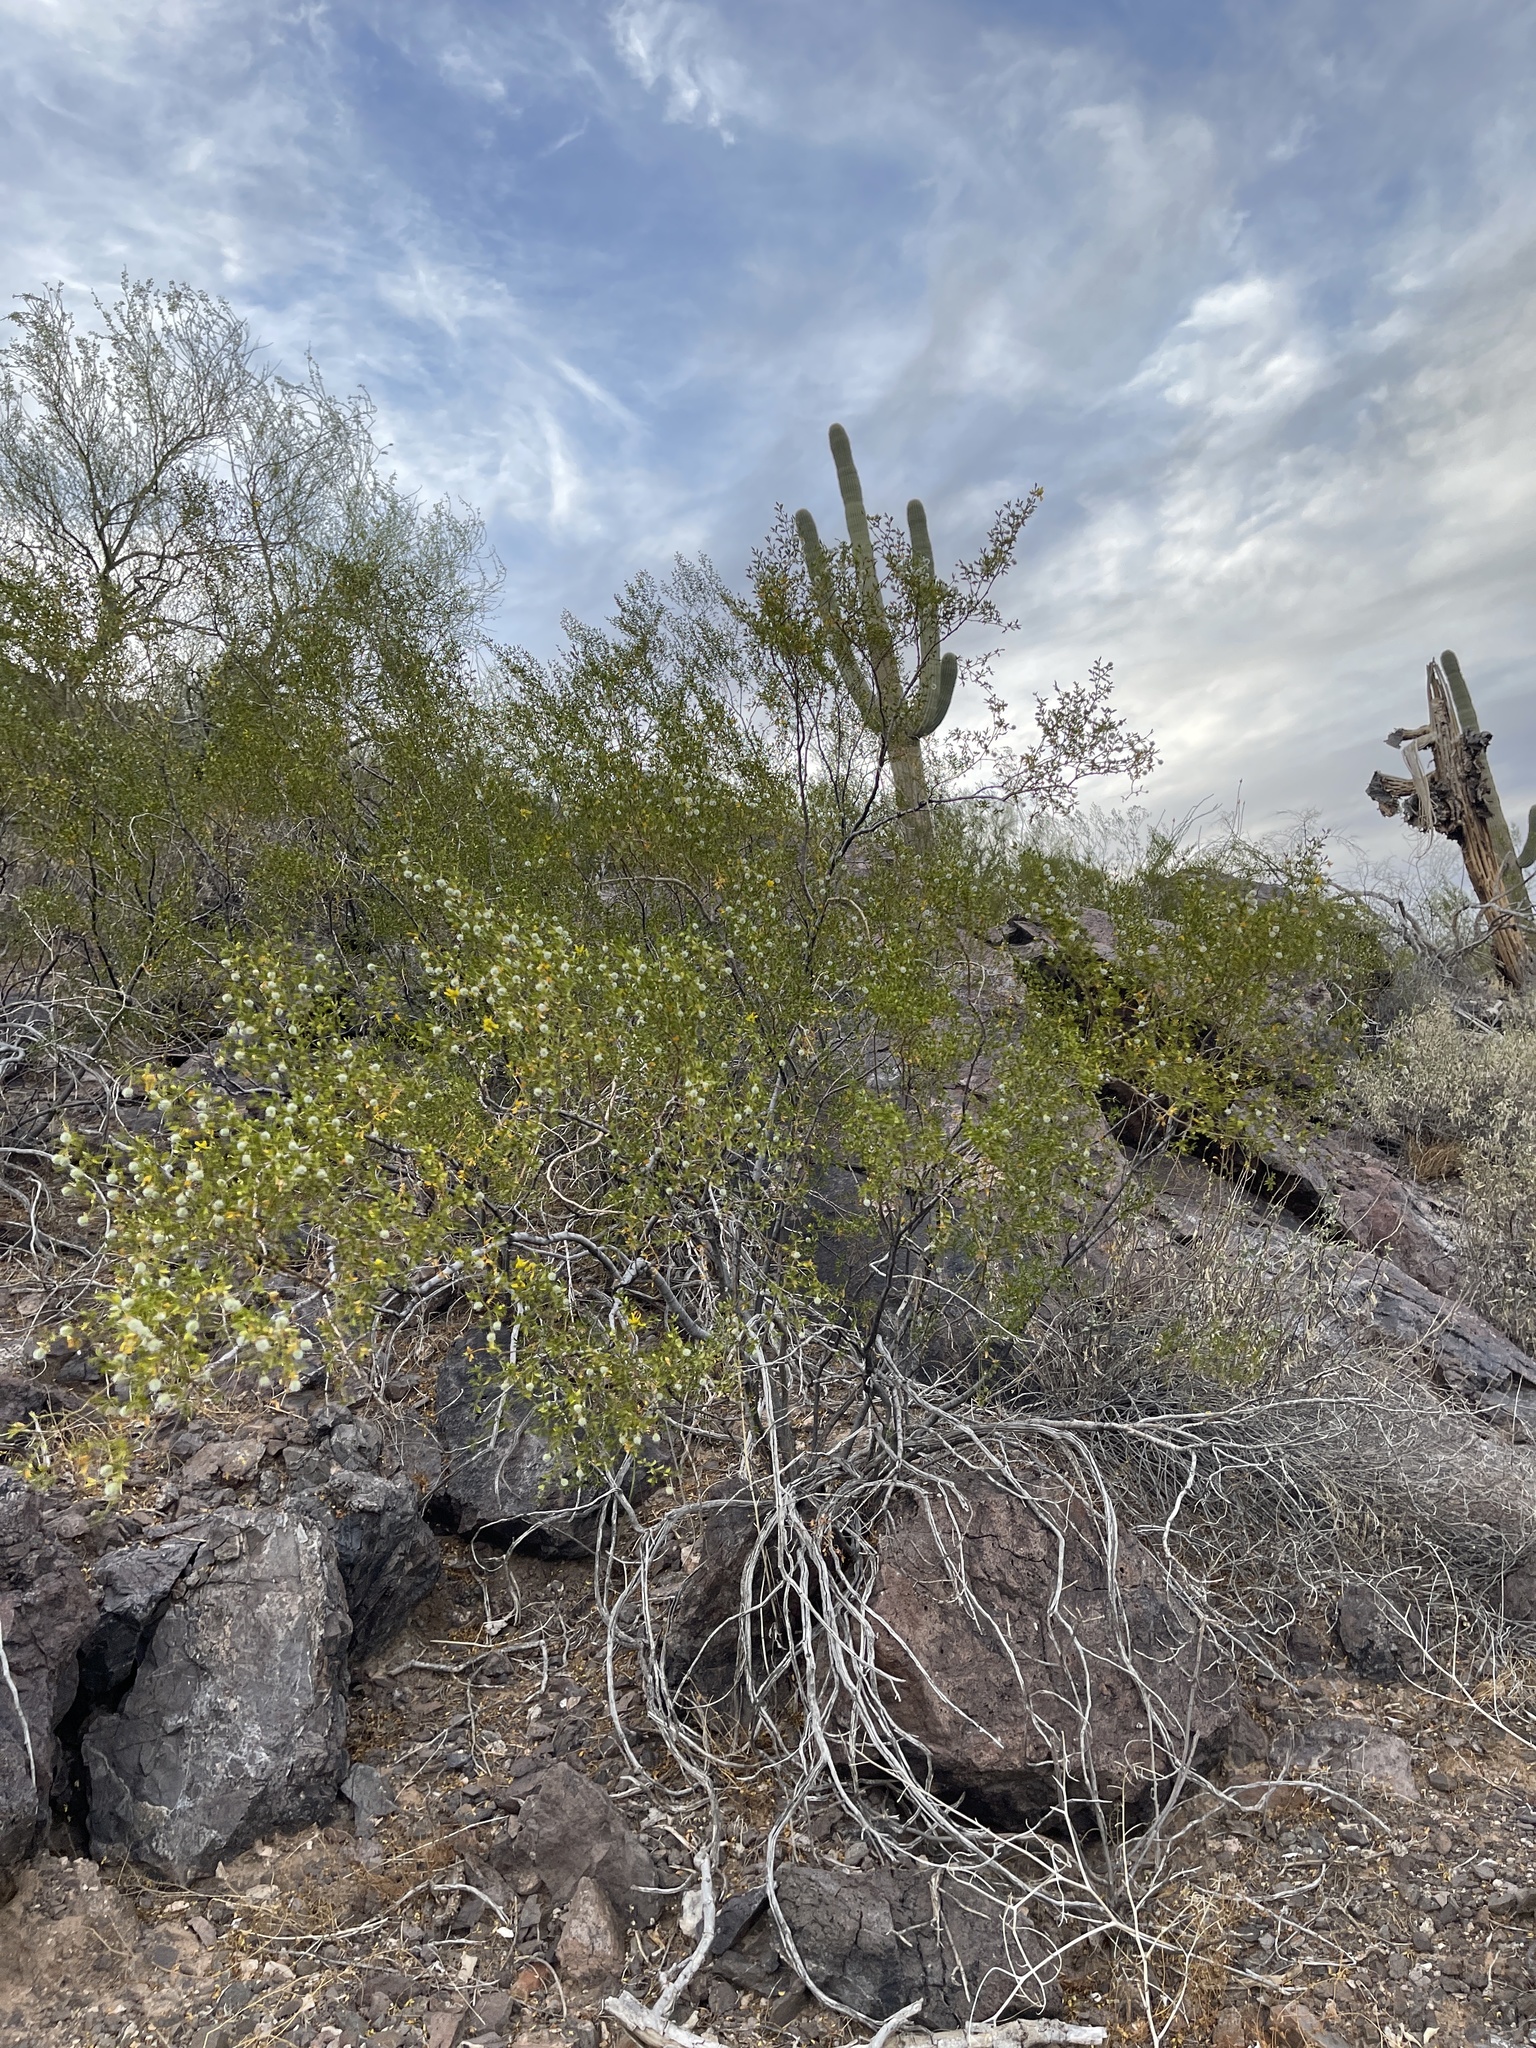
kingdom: Plantae
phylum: Tracheophyta
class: Magnoliopsida
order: Zygophyllales
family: Zygophyllaceae
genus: Larrea
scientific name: Larrea tridentata
